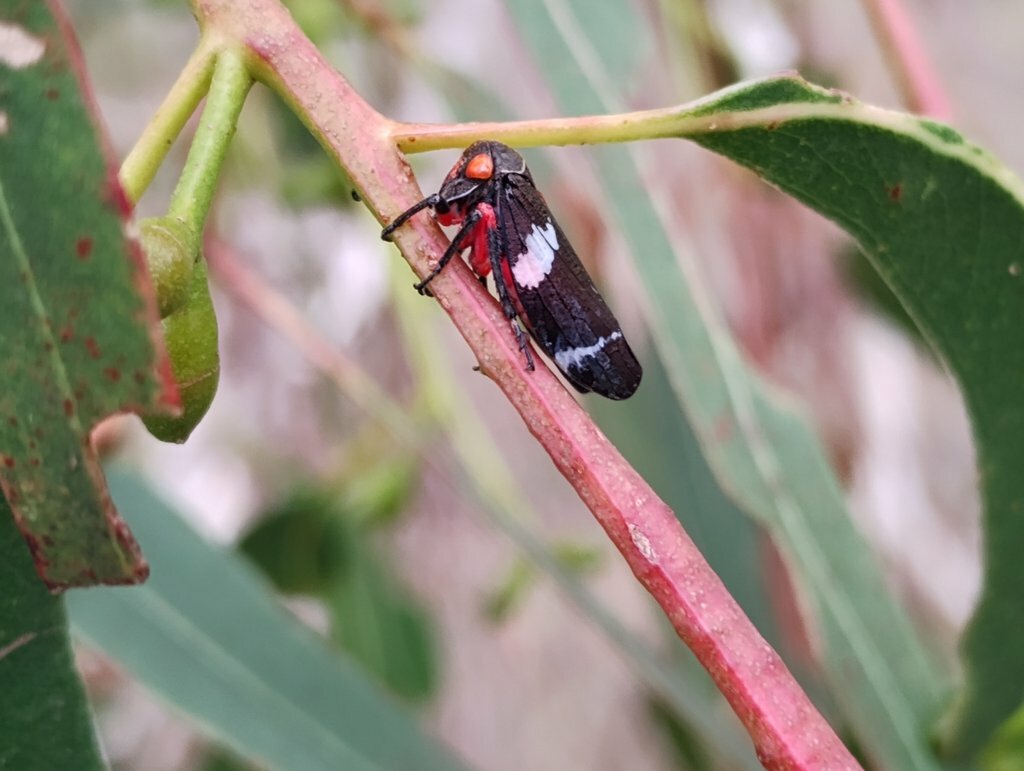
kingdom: Animalia
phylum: Arthropoda
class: Insecta
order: Hemiptera
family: Cicadellidae
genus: Eurymeloides
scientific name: Eurymeloides pulchra
